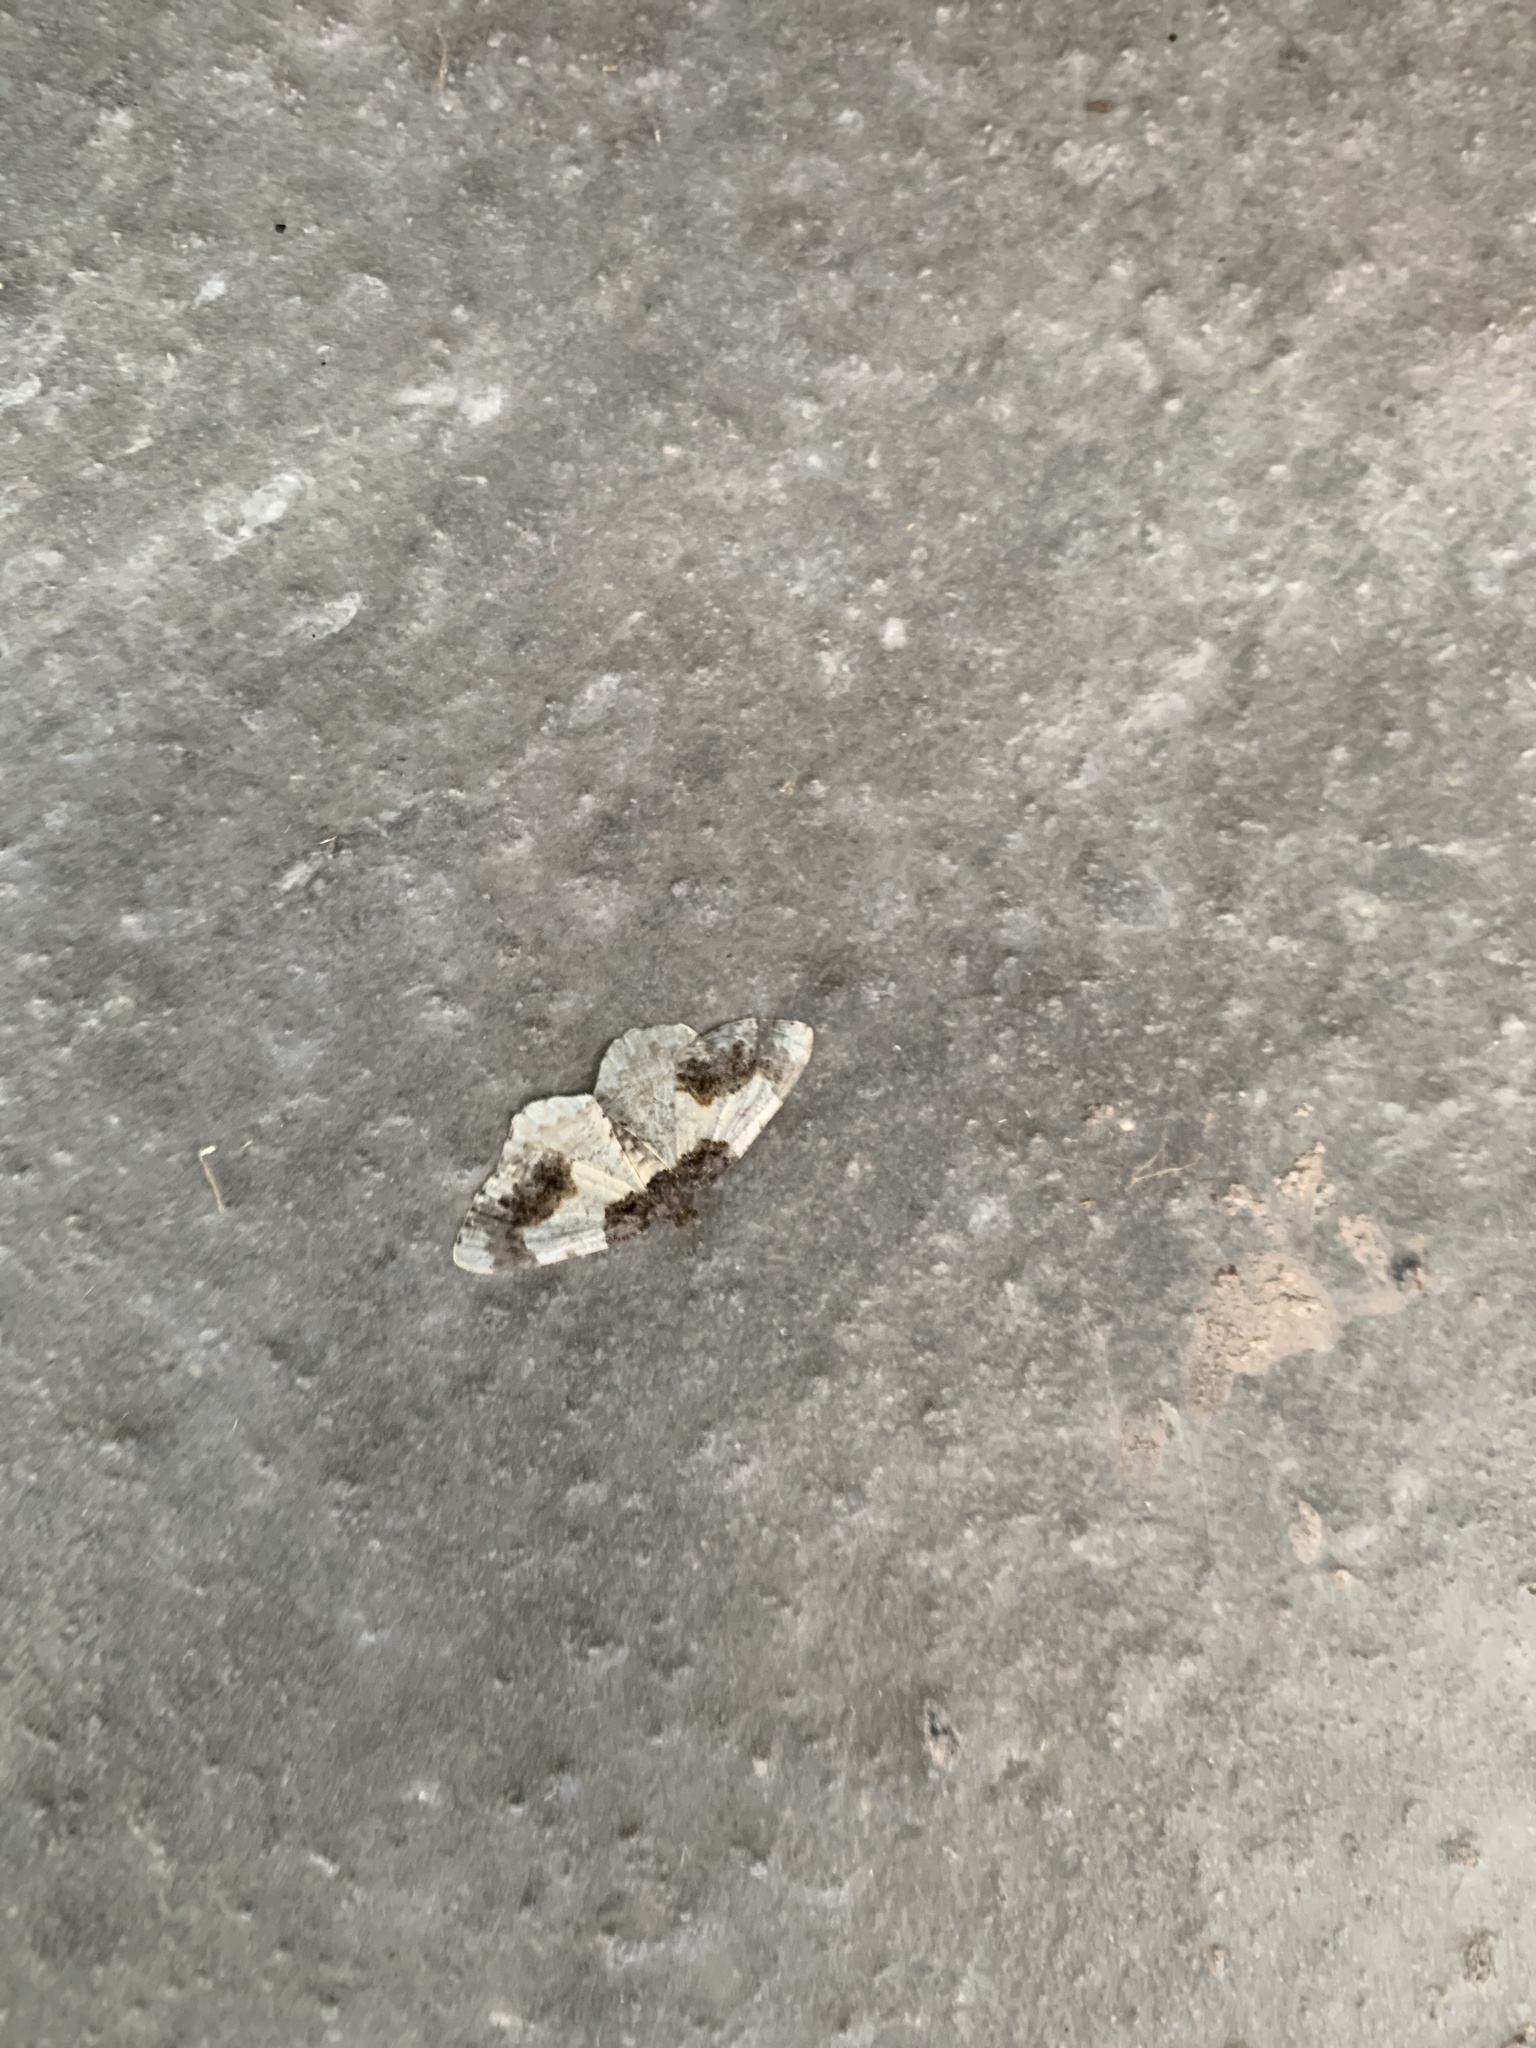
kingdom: Animalia
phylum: Arthropoda
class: Insecta
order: Lepidoptera
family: Geometridae
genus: Ligdia
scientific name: Ligdia adustata
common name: Scorched carpet
